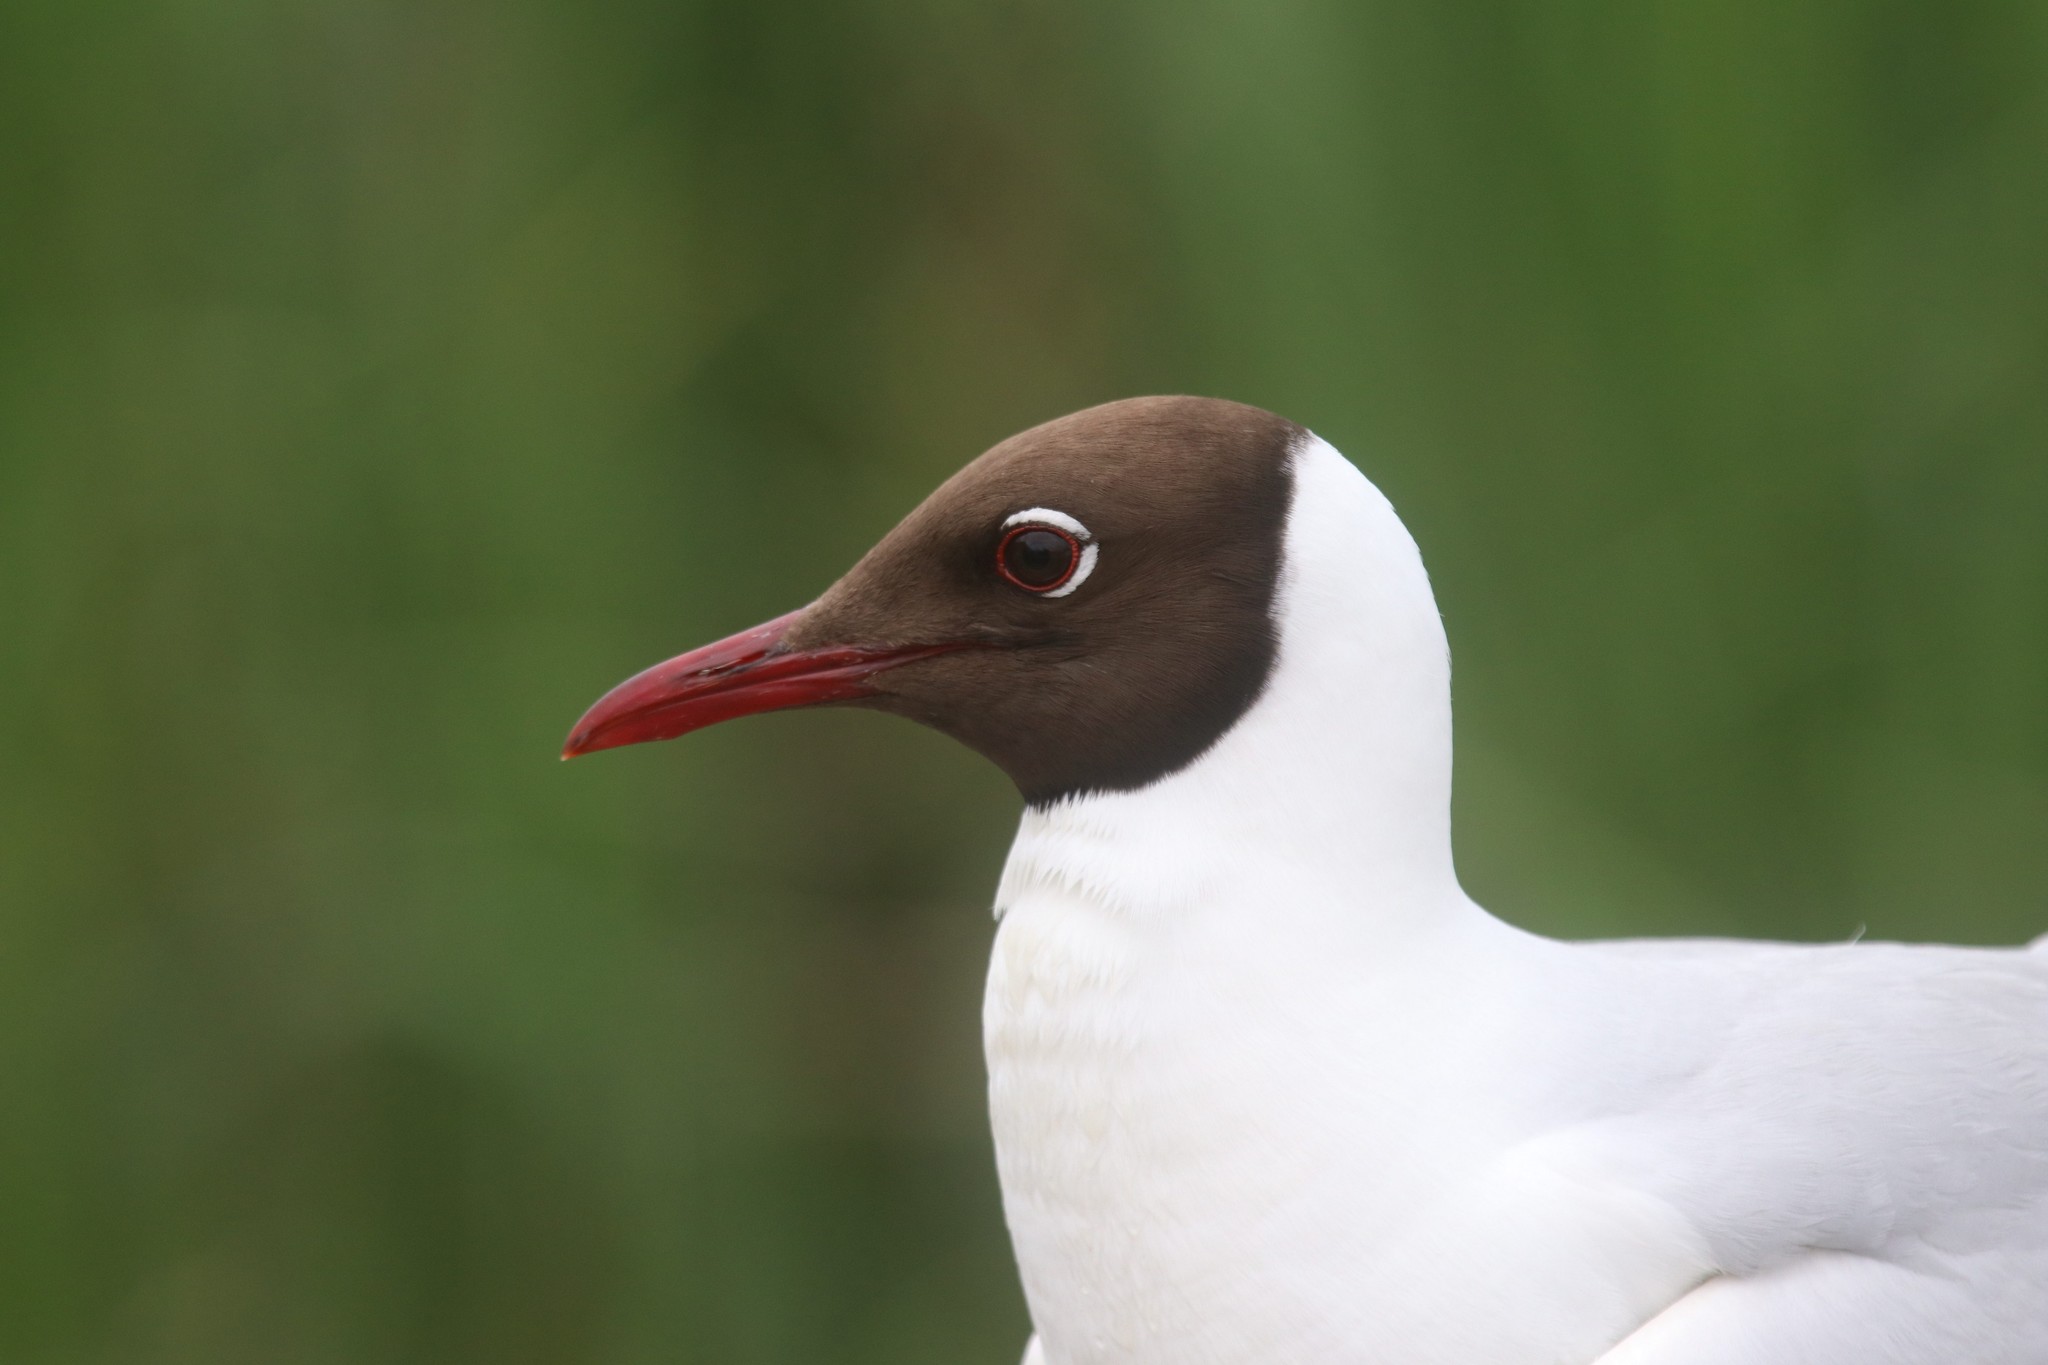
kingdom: Animalia
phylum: Chordata
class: Aves
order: Charadriiformes
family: Laridae
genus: Chroicocephalus
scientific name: Chroicocephalus ridibundus
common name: Black-headed gull
